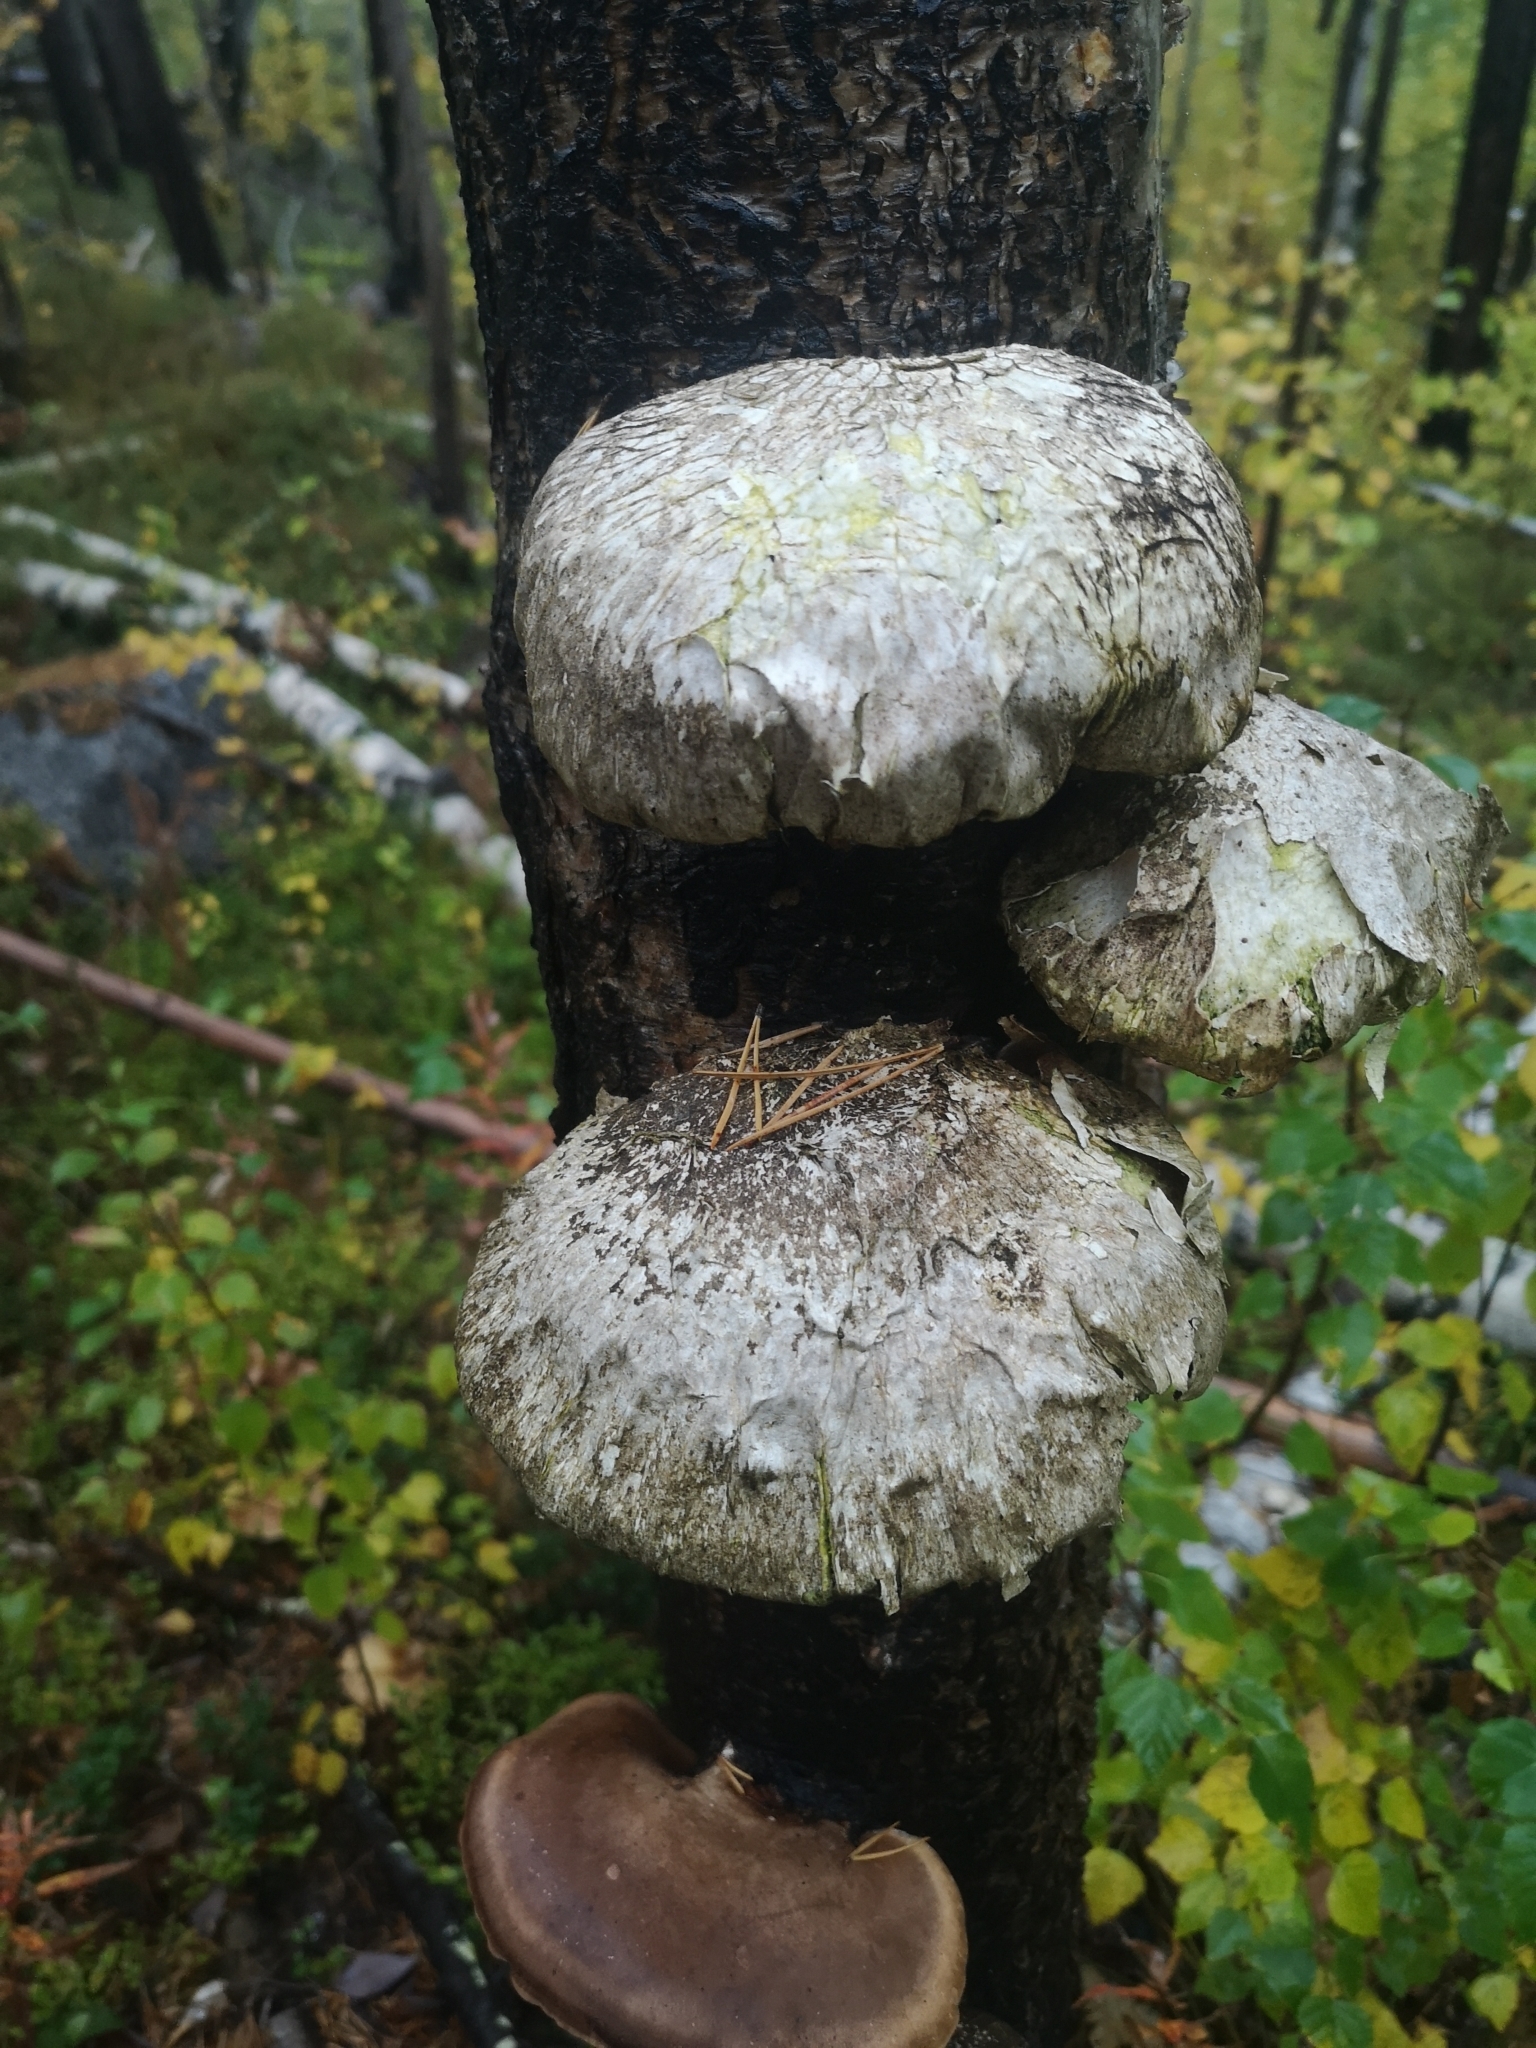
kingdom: Fungi
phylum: Basidiomycota
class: Agaricomycetes
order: Polyporales
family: Fomitopsidaceae
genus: Fomitopsis
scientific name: Fomitopsis betulina
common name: Birch polypore
